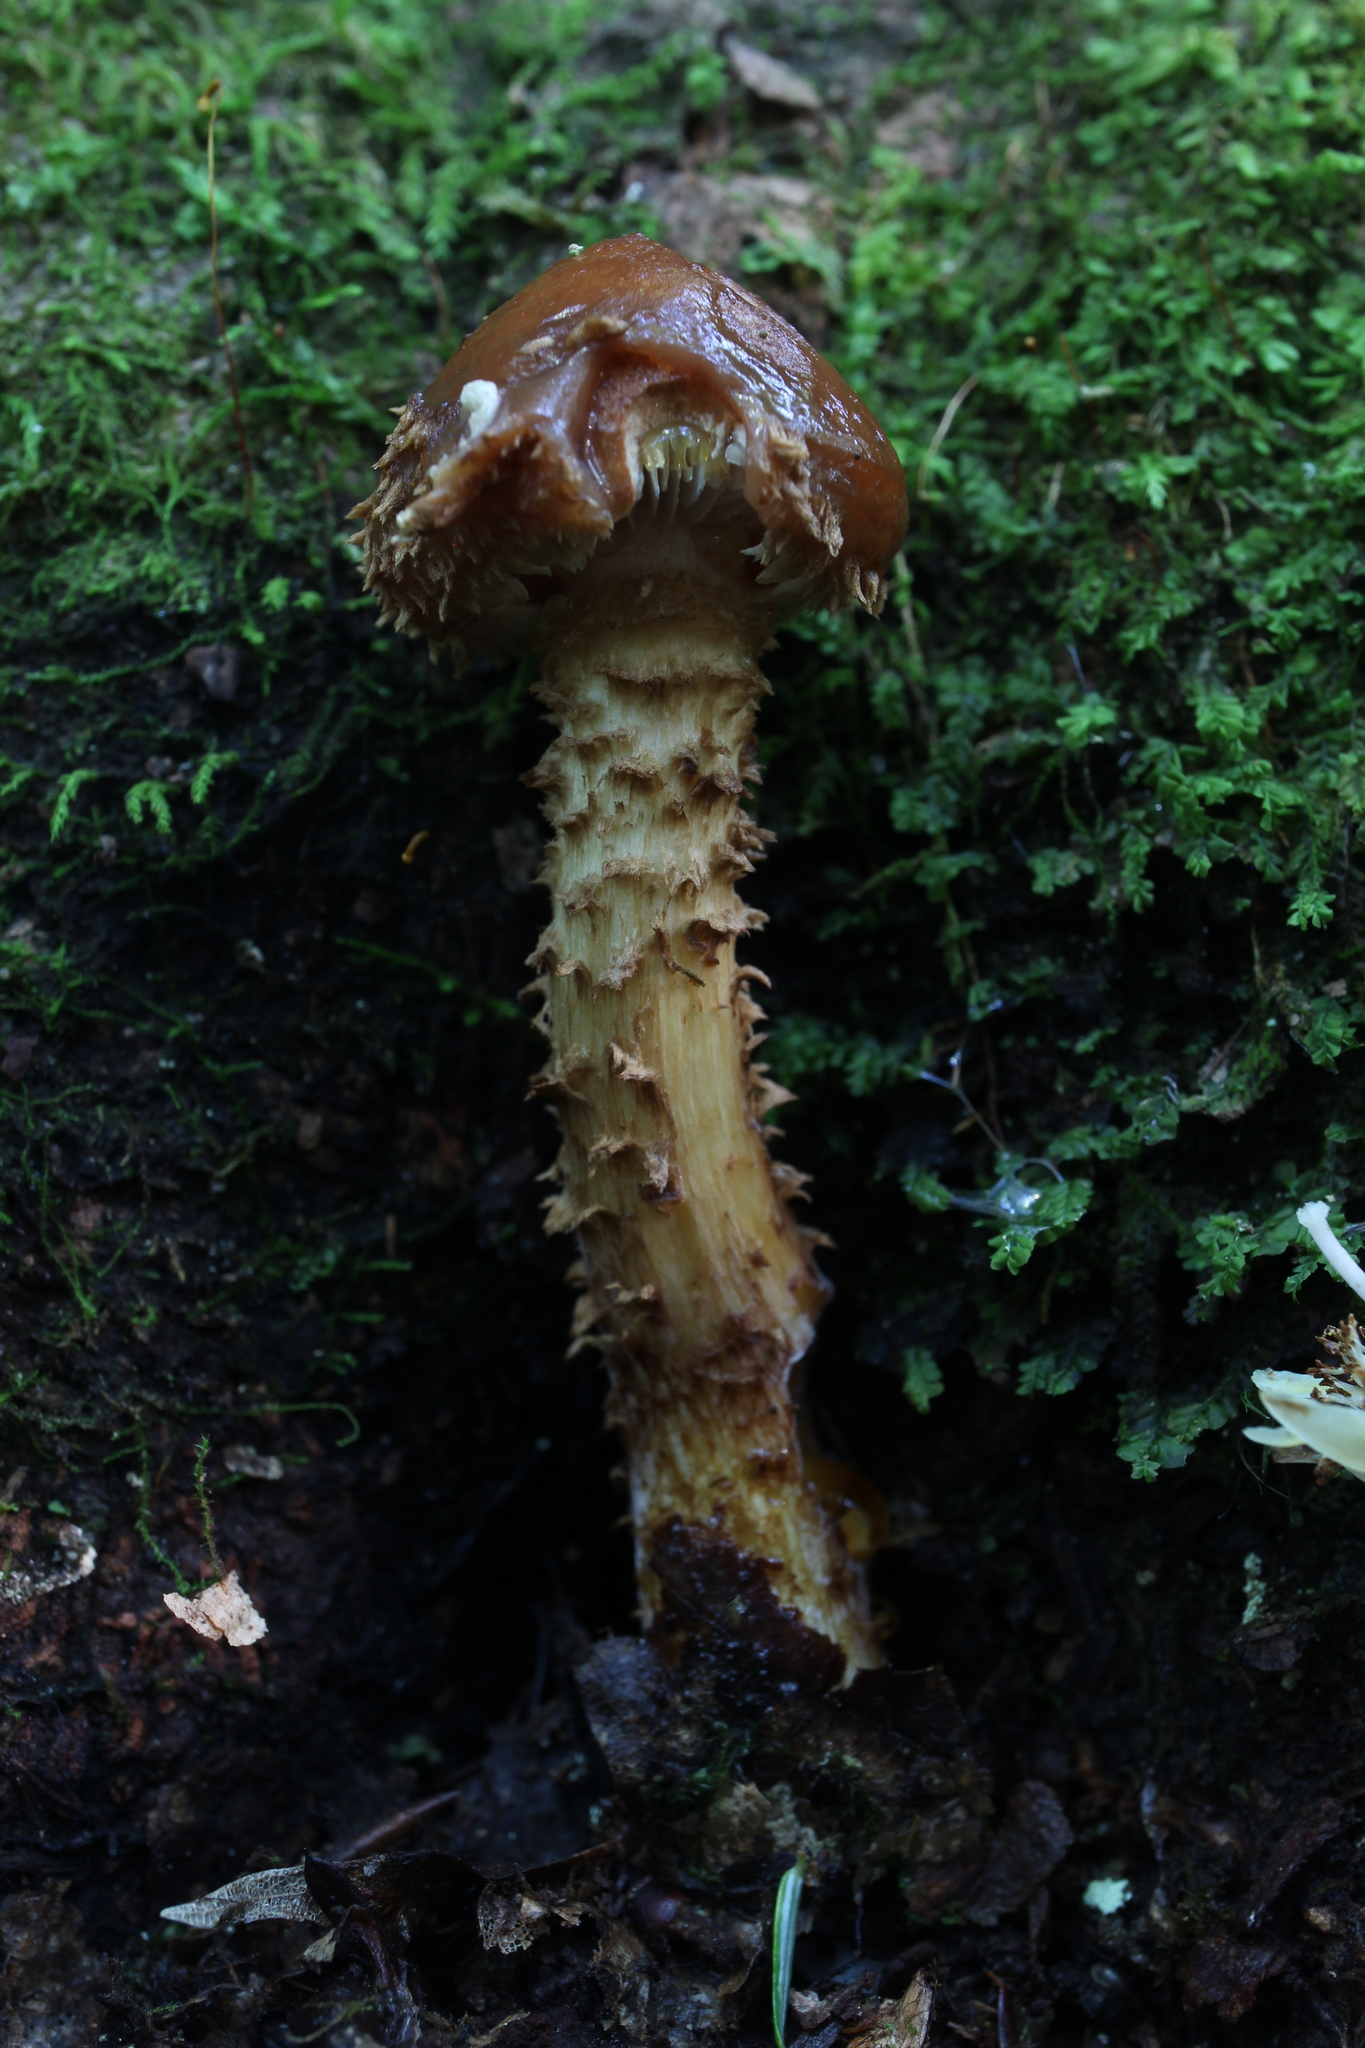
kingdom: Fungi
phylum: Basidiomycota
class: Agaricomycetes
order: Agaricales
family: Tubariaceae
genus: Hemistropharia
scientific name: Hemistropharia albocrenulata
